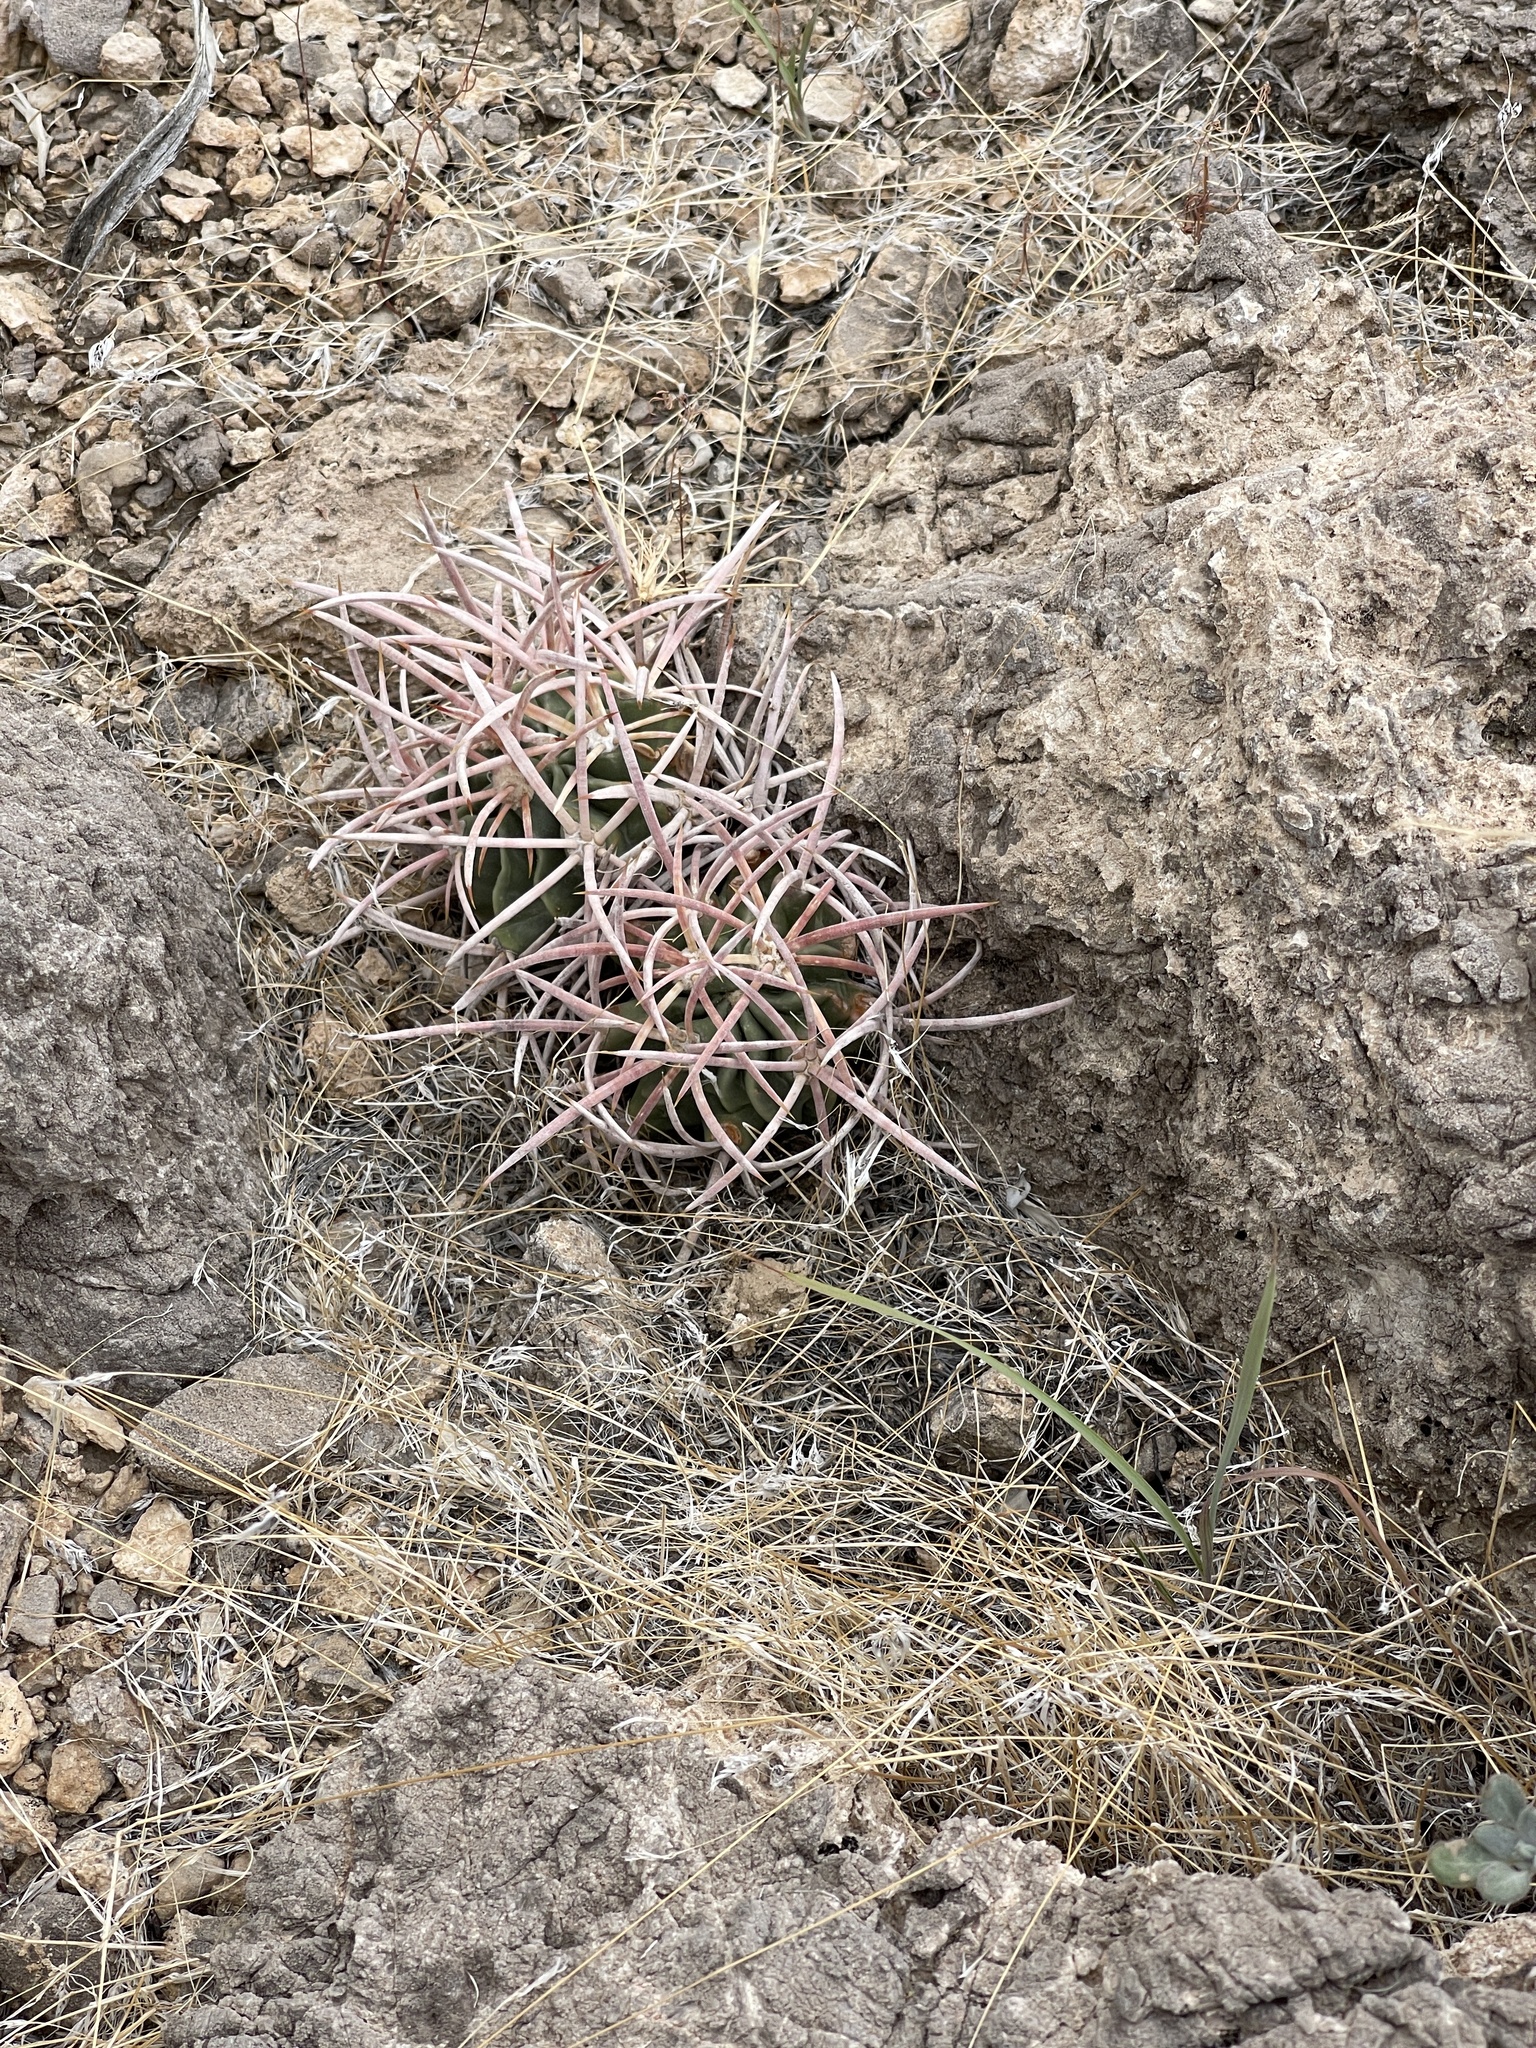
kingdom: Plantae
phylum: Tracheophyta
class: Magnoliopsida
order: Caryophyllales
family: Cactaceae
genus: Echinocactus
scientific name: Echinocactus polycephalus
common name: Cottontop cactus
